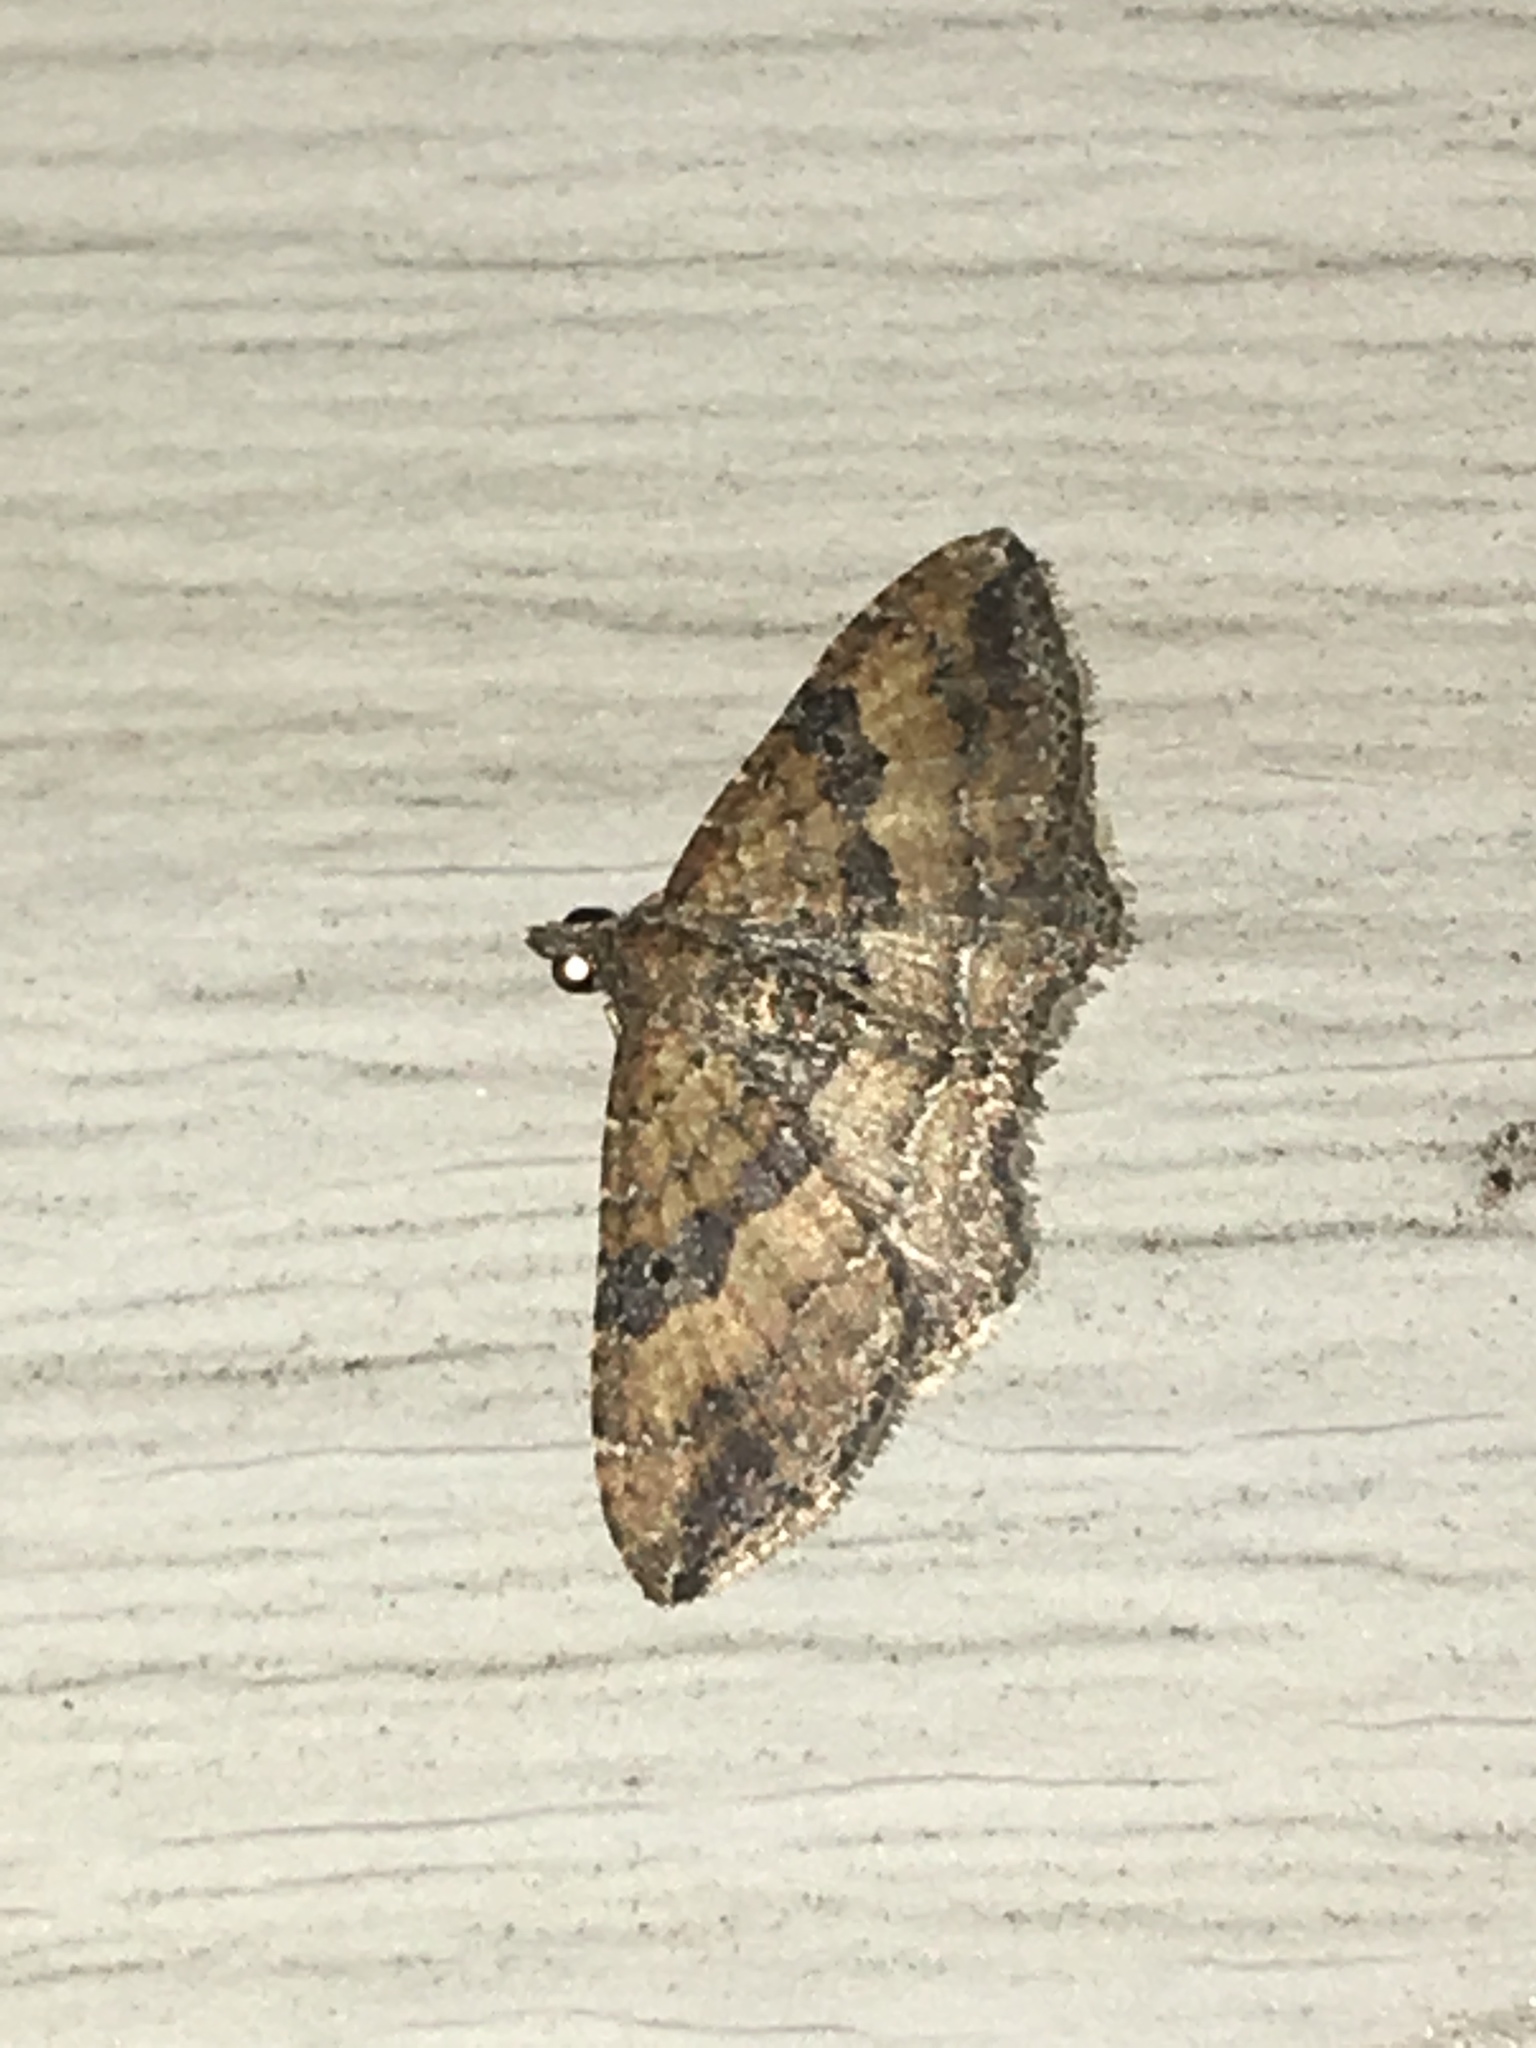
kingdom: Animalia
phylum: Arthropoda
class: Insecta
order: Lepidoptera
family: Geometridae
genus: Orthonama
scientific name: Orthonama obstipata
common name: The gem
